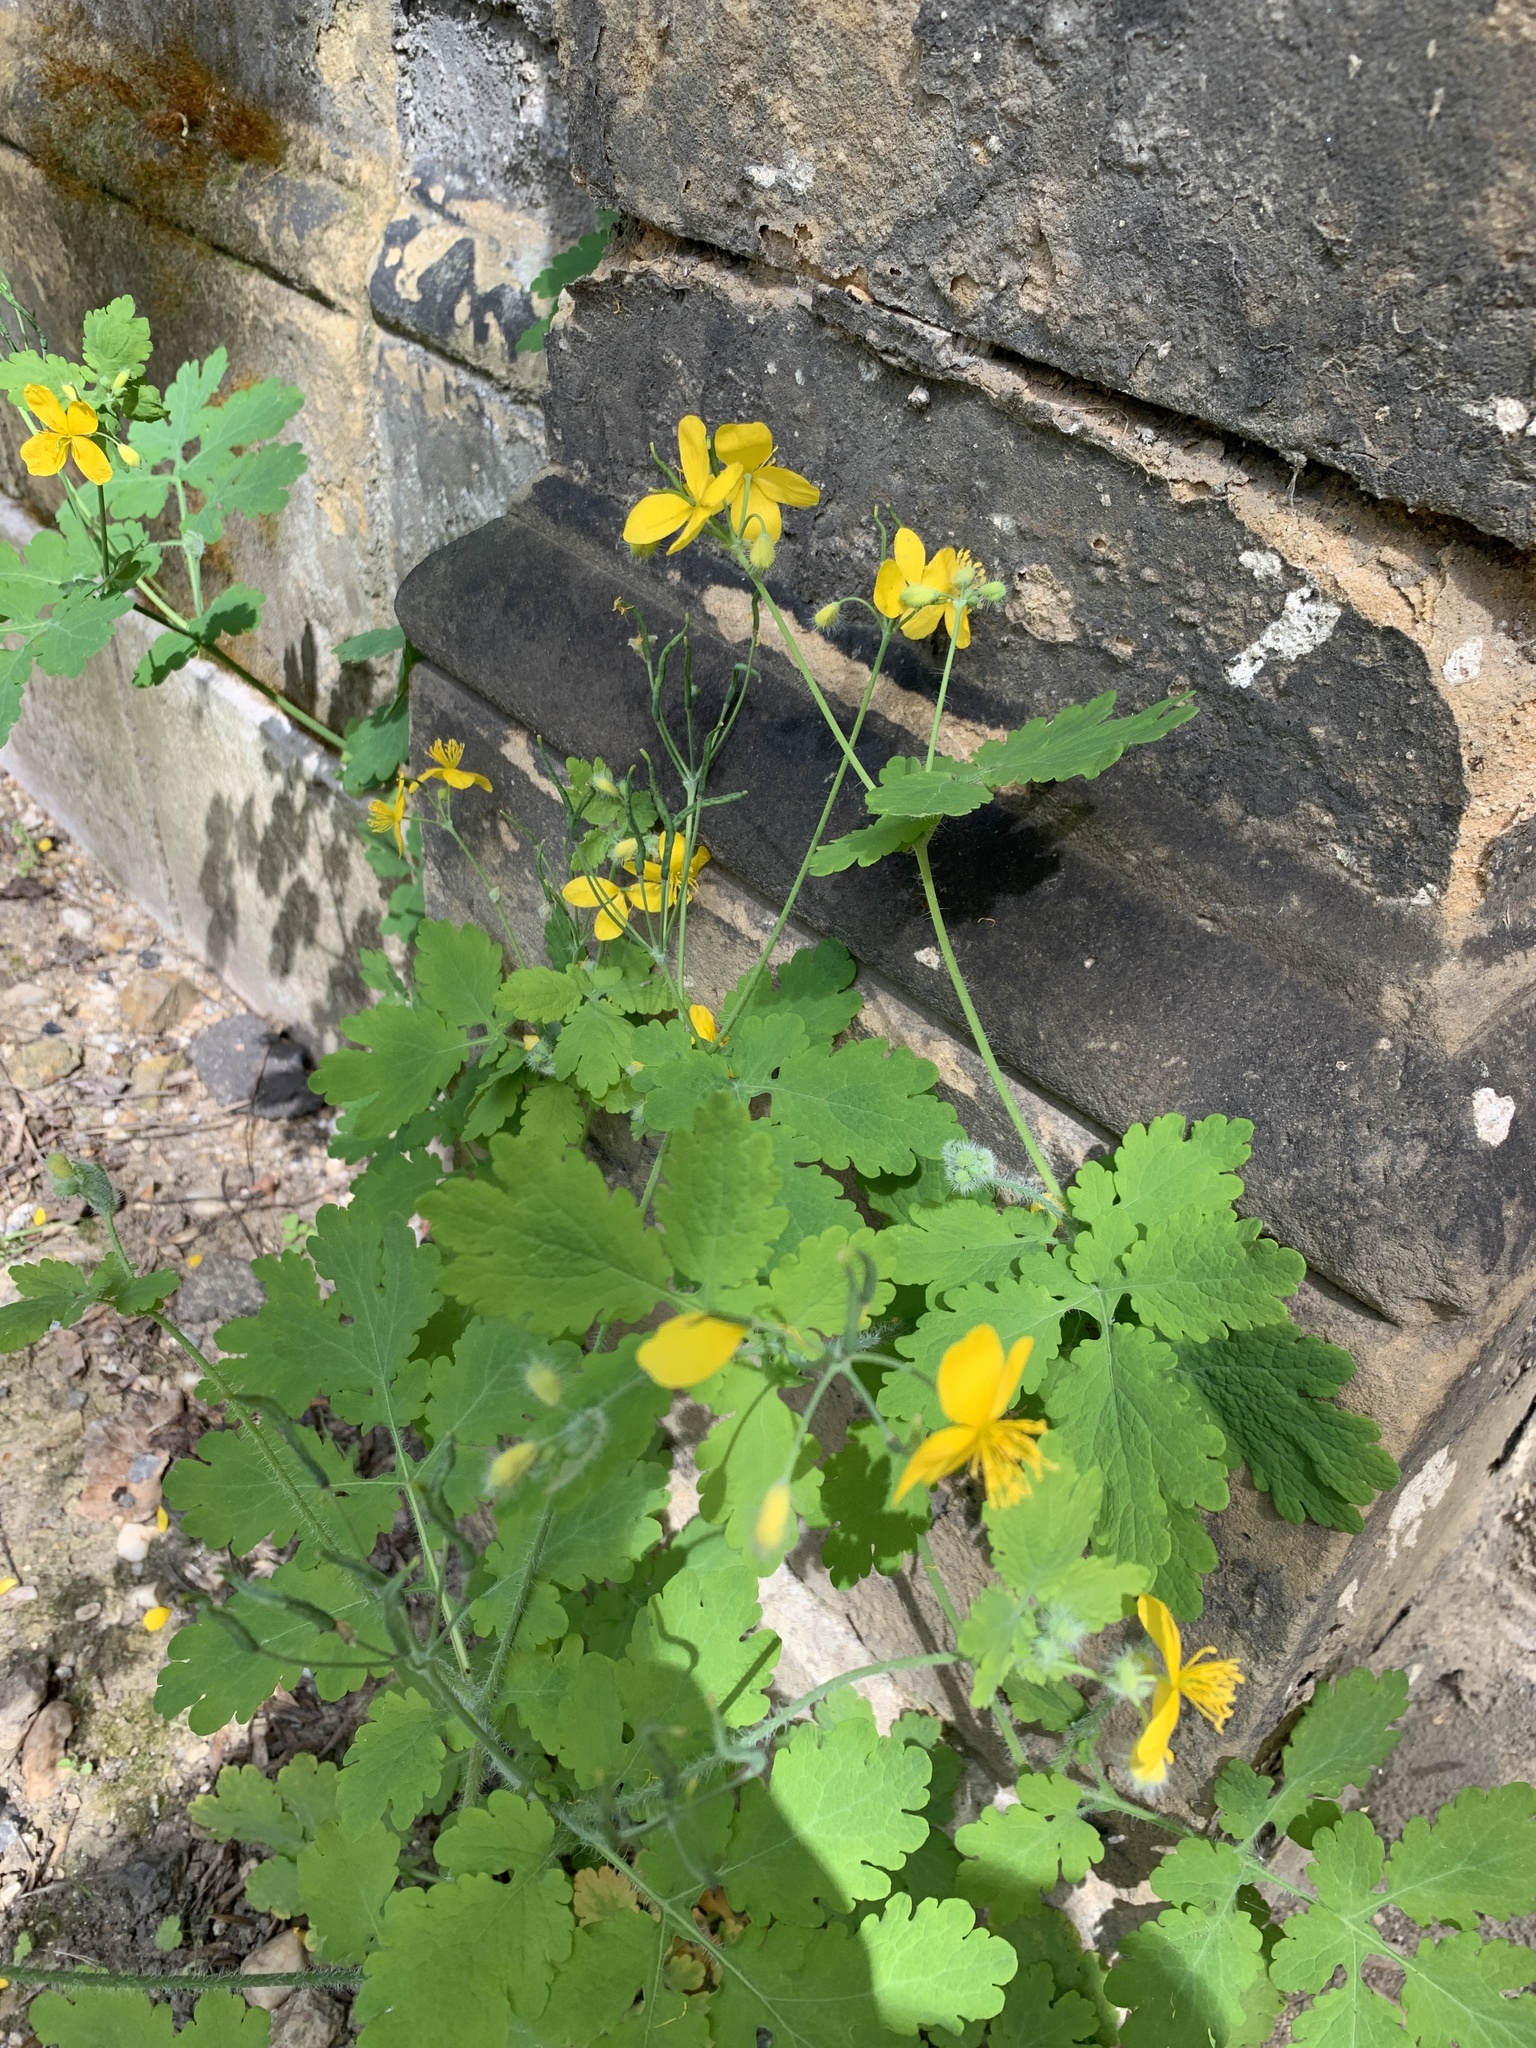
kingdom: Plantae
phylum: Tracheophyta
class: Magnoliopsida
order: Ranunculales
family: Papaveraceae
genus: Chelidonium
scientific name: Chelidonium majus
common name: Greater celandine
